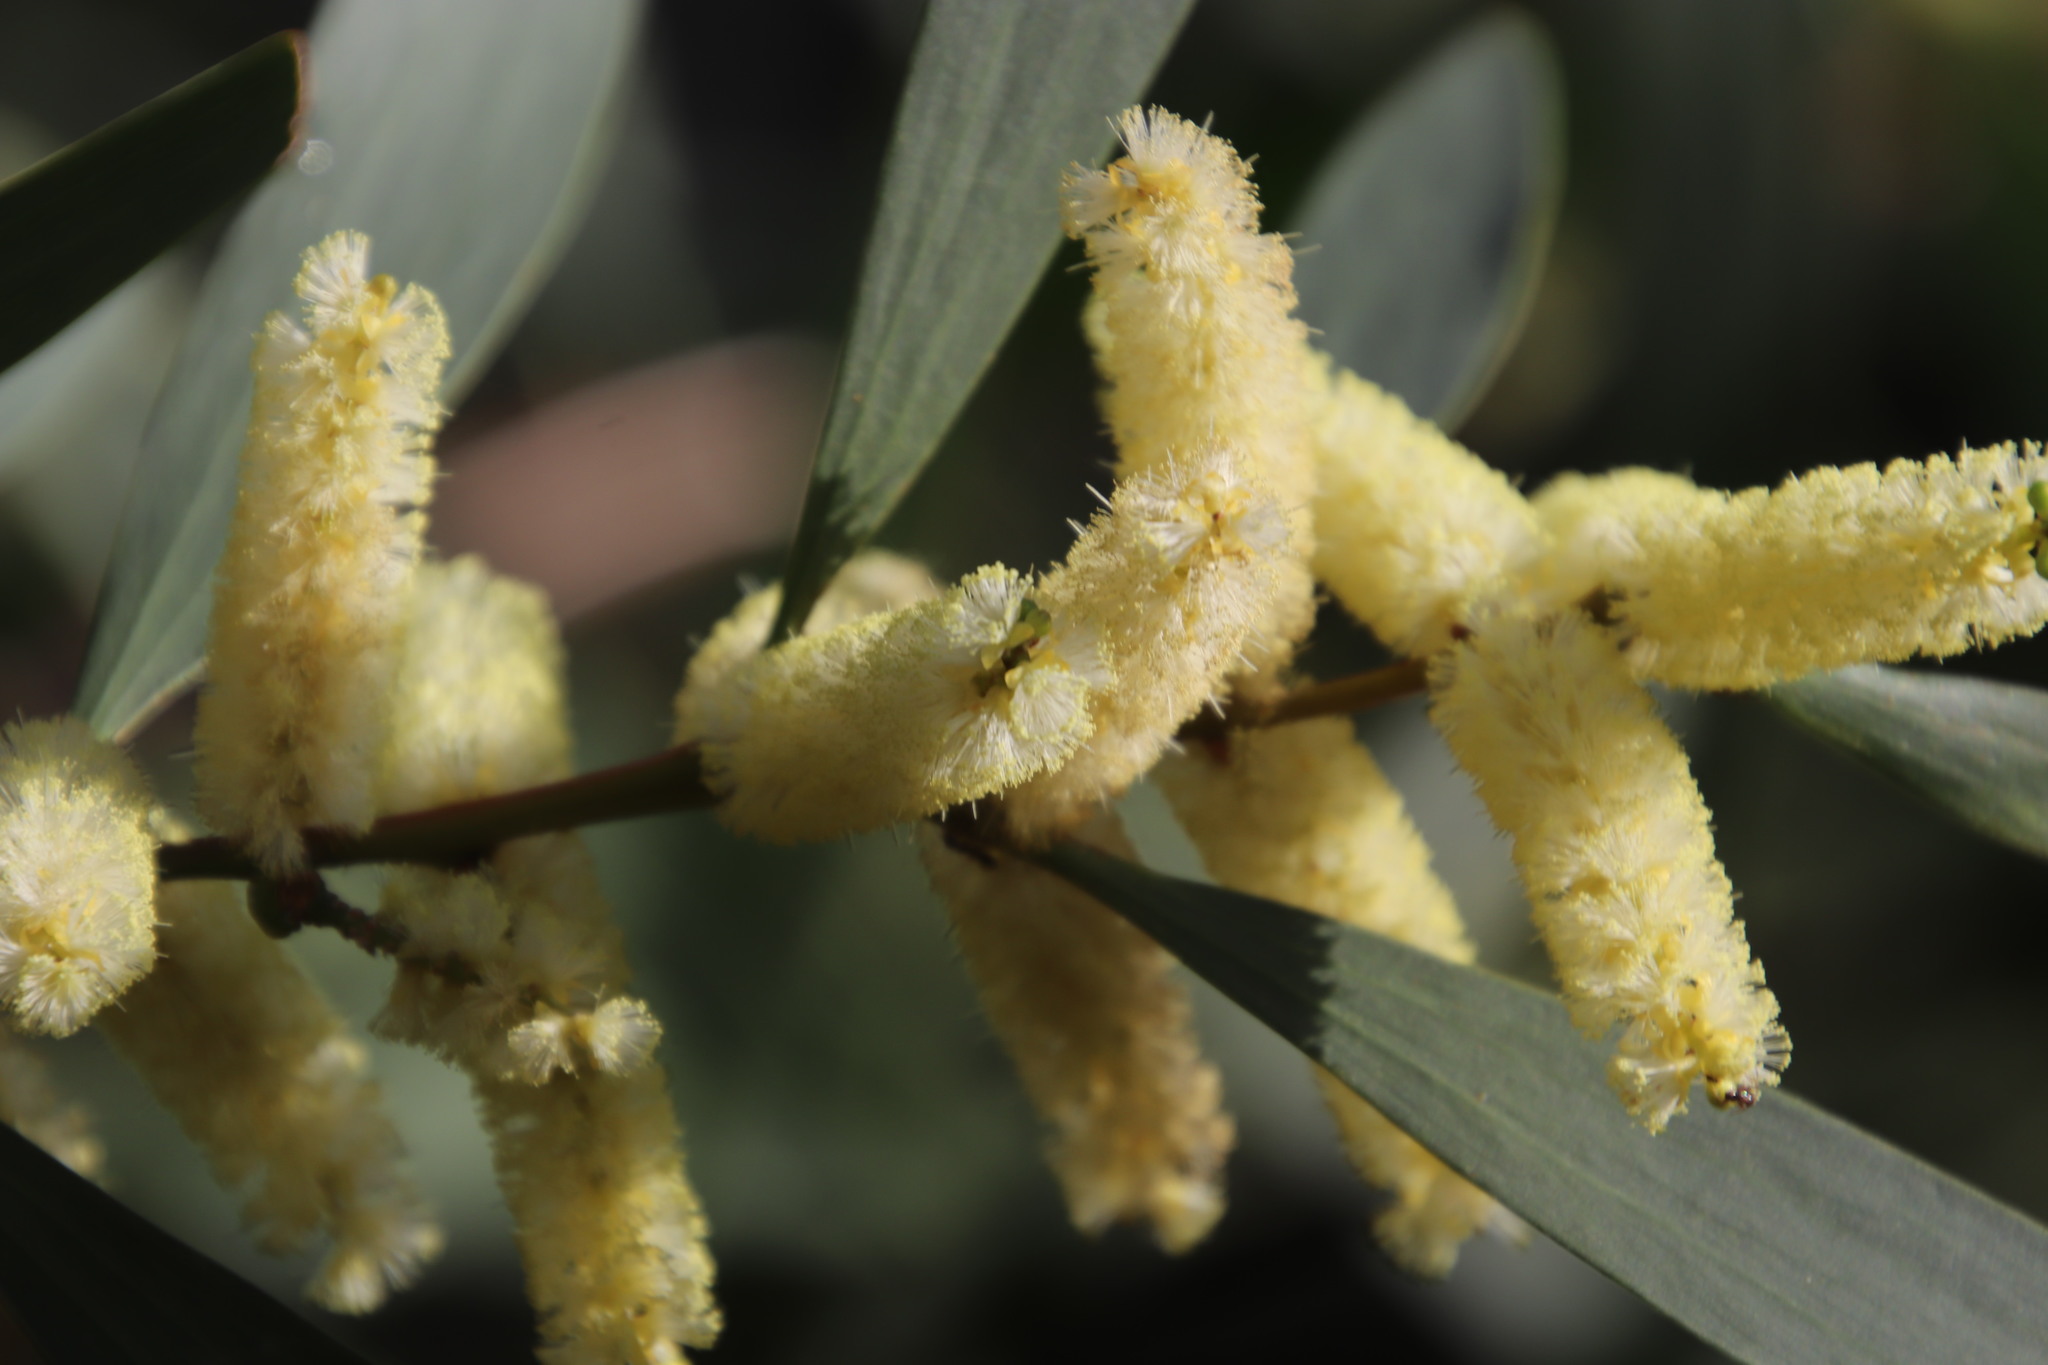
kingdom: Plantae
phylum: Tracheophyta
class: Magnoliopsida
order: Fabales
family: Fabaceae
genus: Acacia
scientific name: Acacia longifolia
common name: Sydney golden wattle
